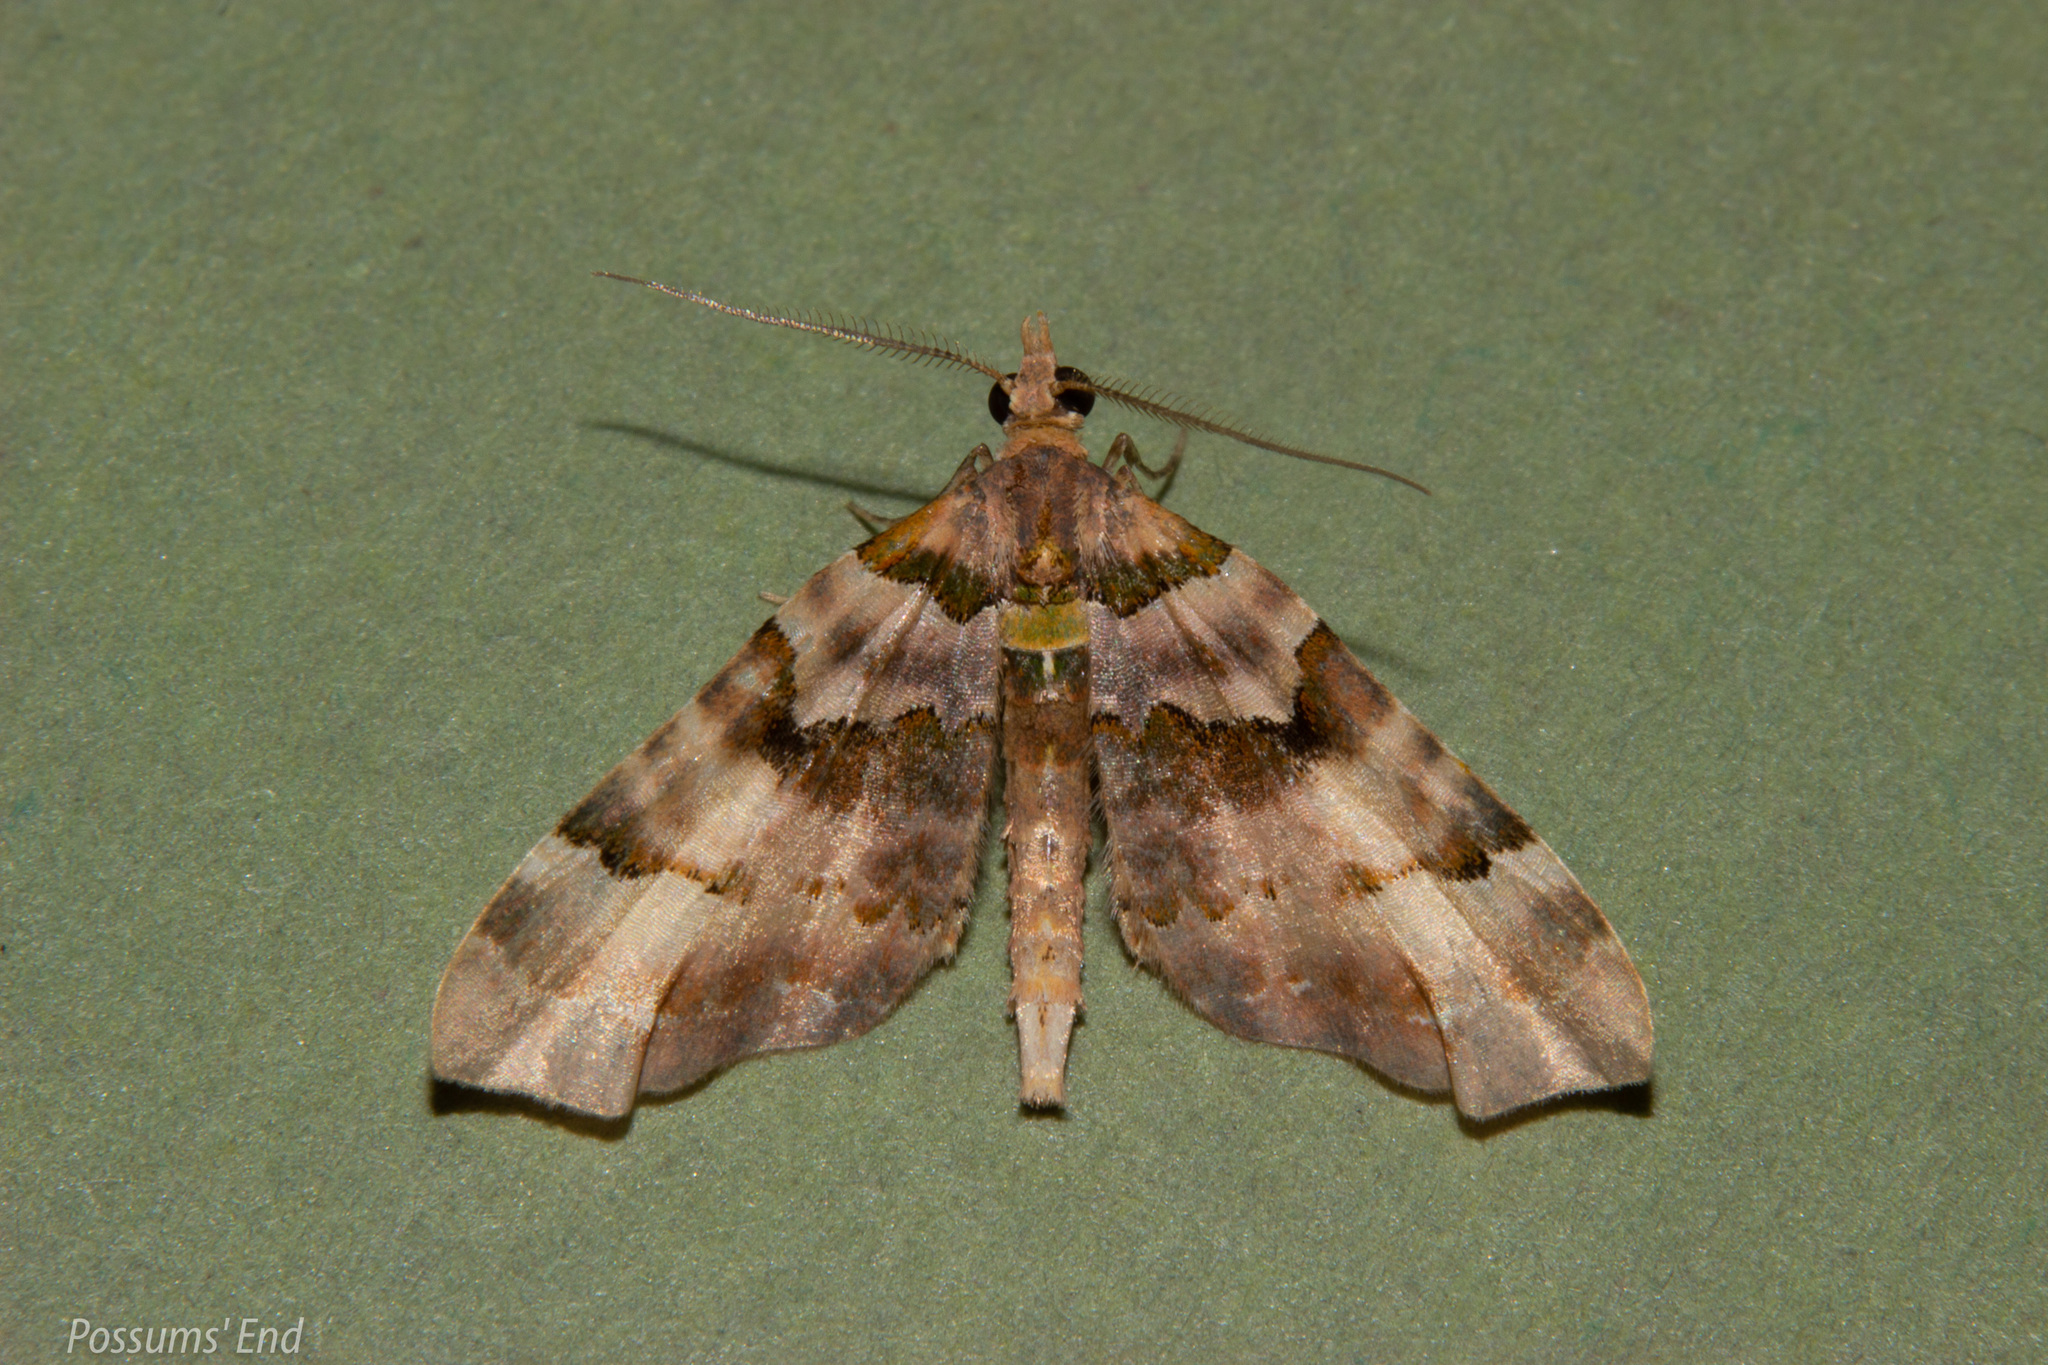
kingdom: Animalia
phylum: Arthropoda
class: Insecta
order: Lepidoptera
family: Geometridae
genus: Elvia
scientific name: Elvia glaucata
